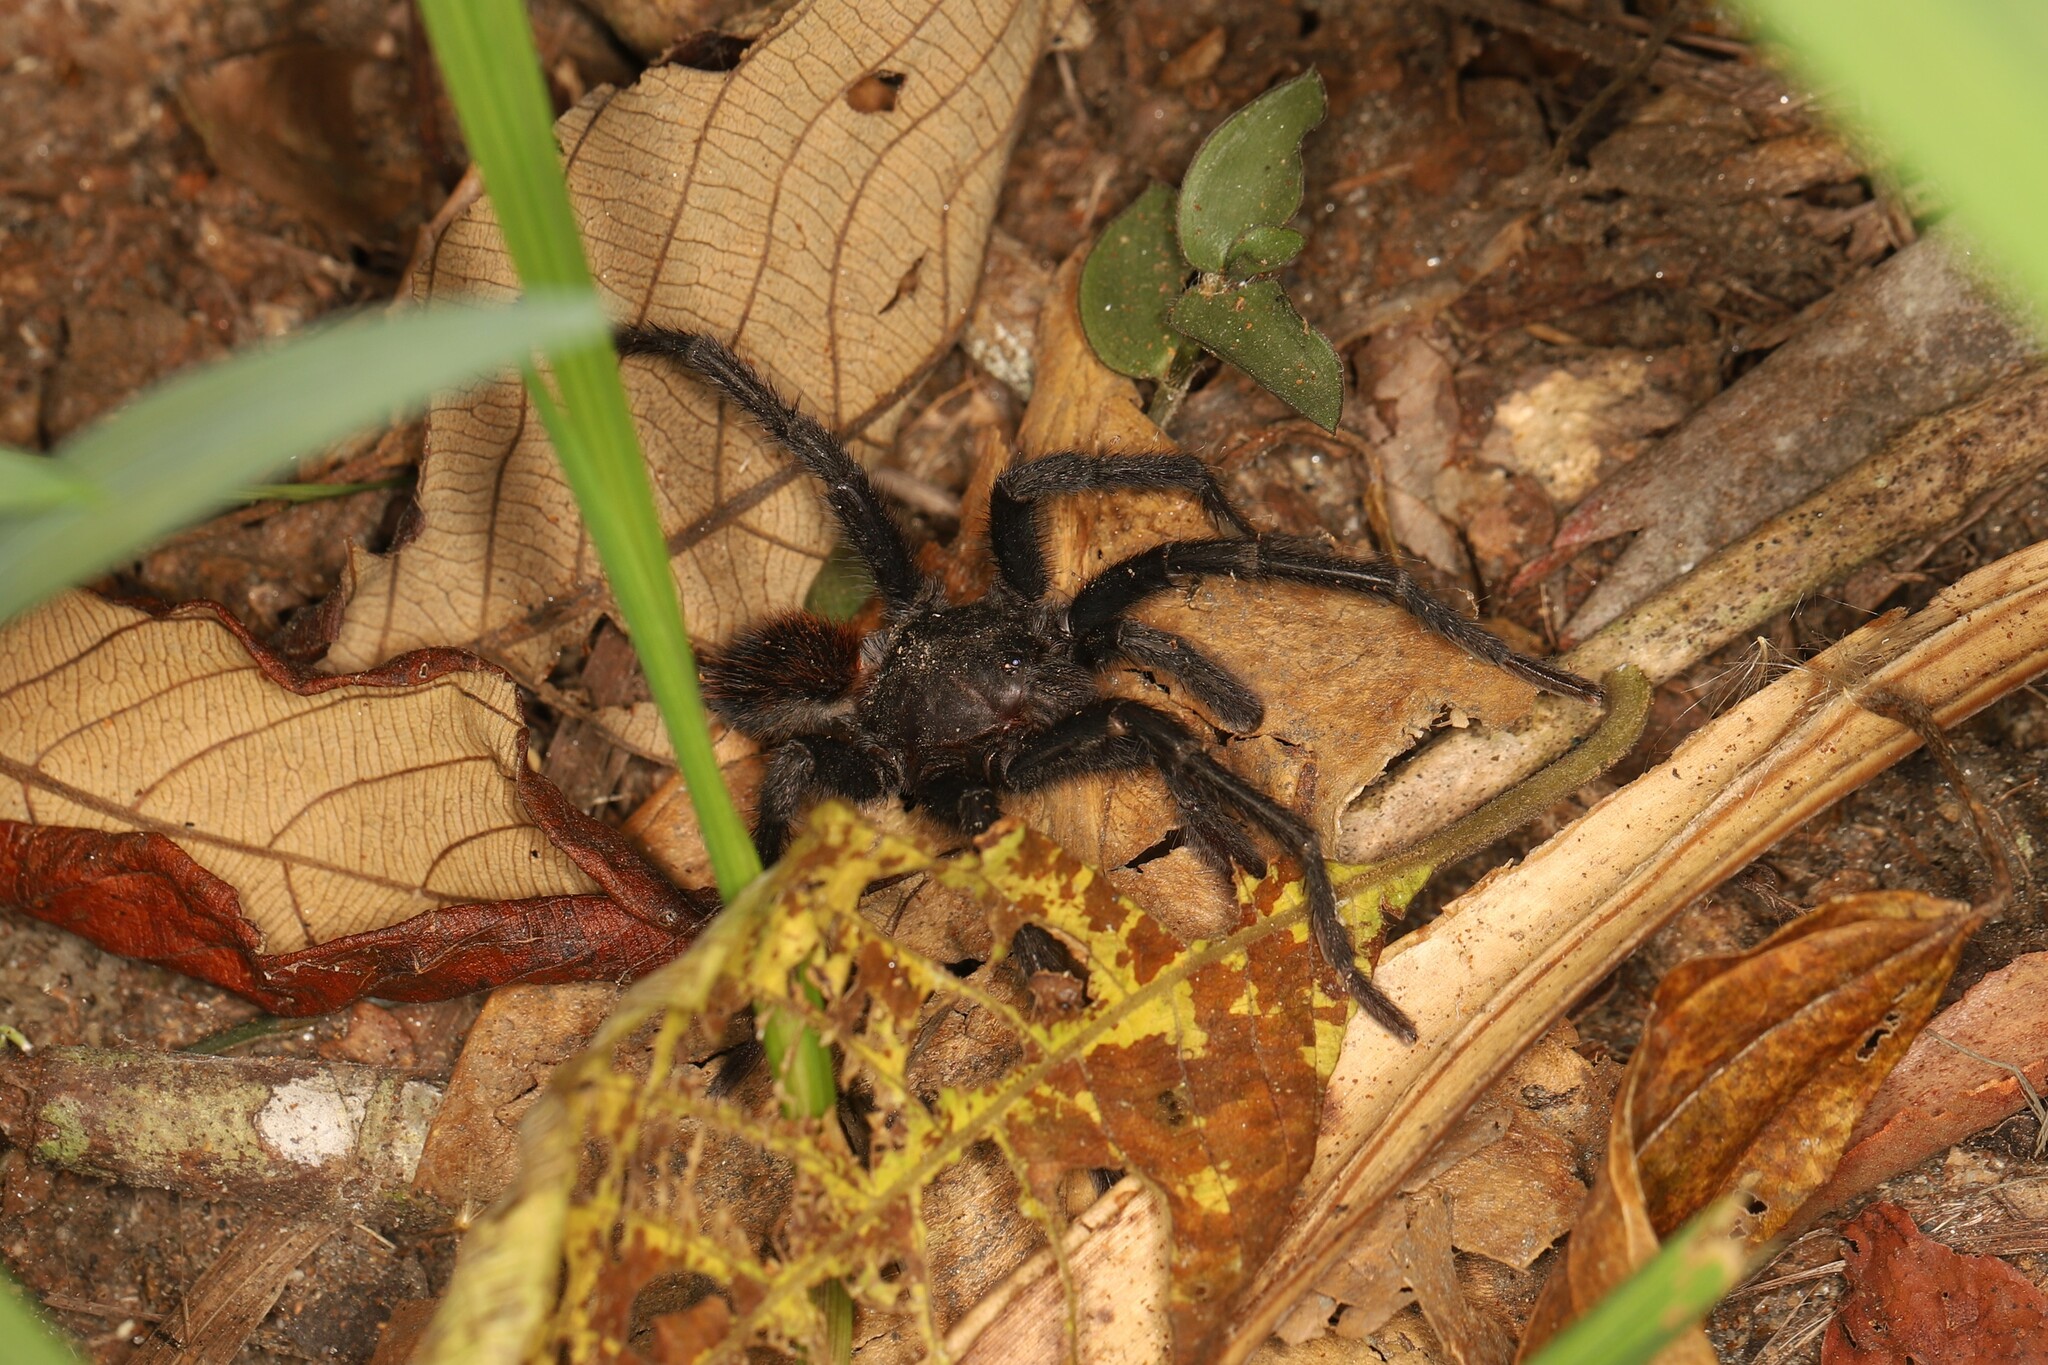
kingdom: Animalia
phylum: Arthropoda
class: Arachnida
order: Araneae
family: Theraphosidae
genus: Kankuamo
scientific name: Kankuamo marquezi
